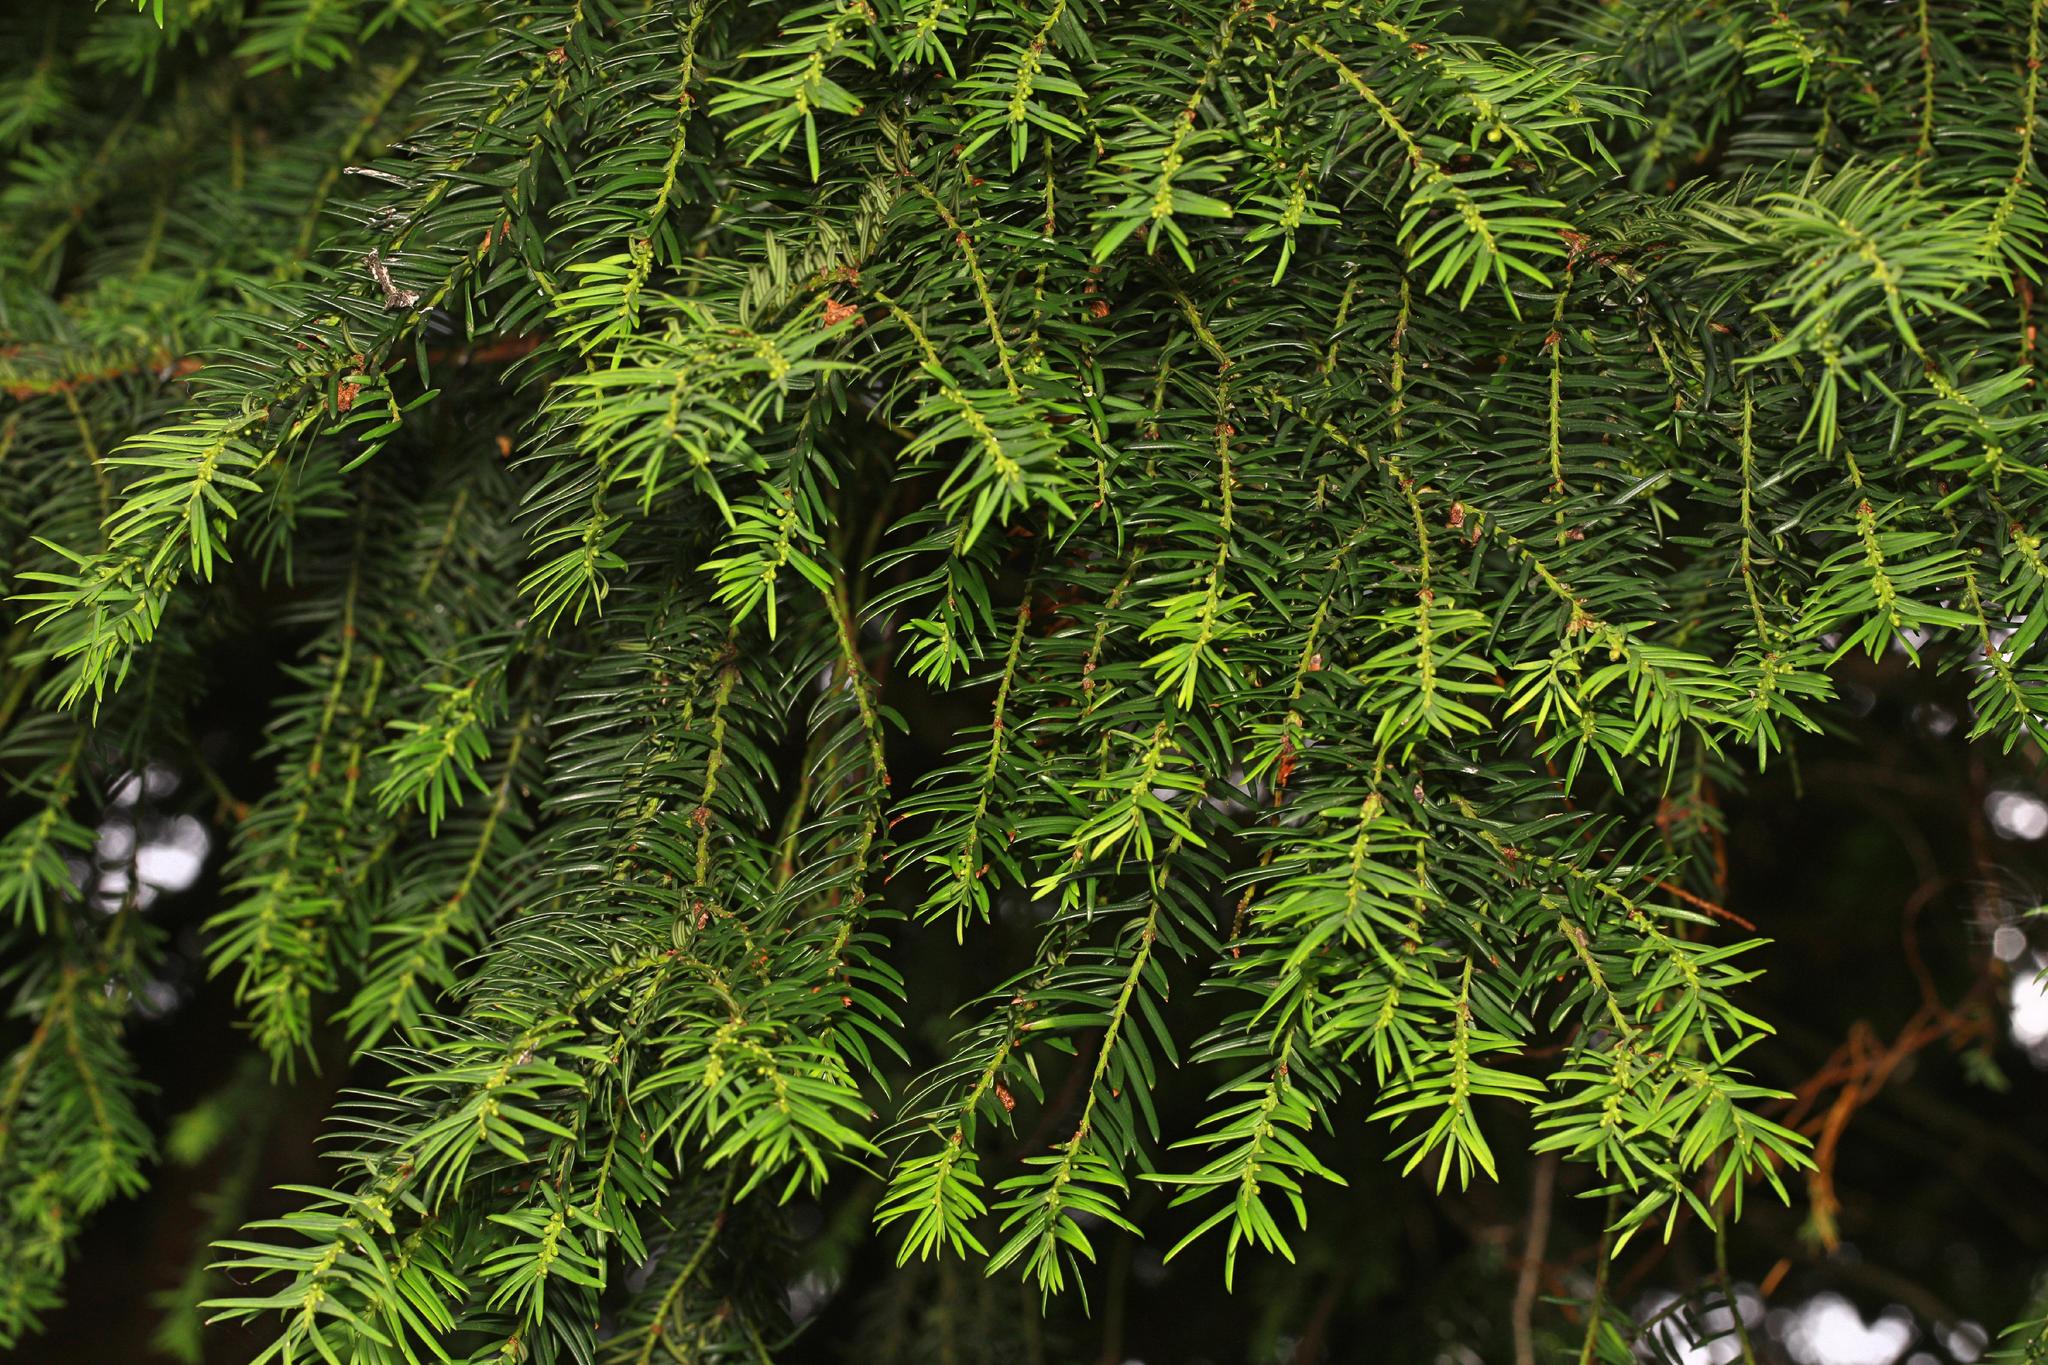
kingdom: Plantae
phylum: Tracheophyta
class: Pinopsida
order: Pinales
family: Taxaceae
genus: Taxus
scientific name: Taxus baccata
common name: Yew
